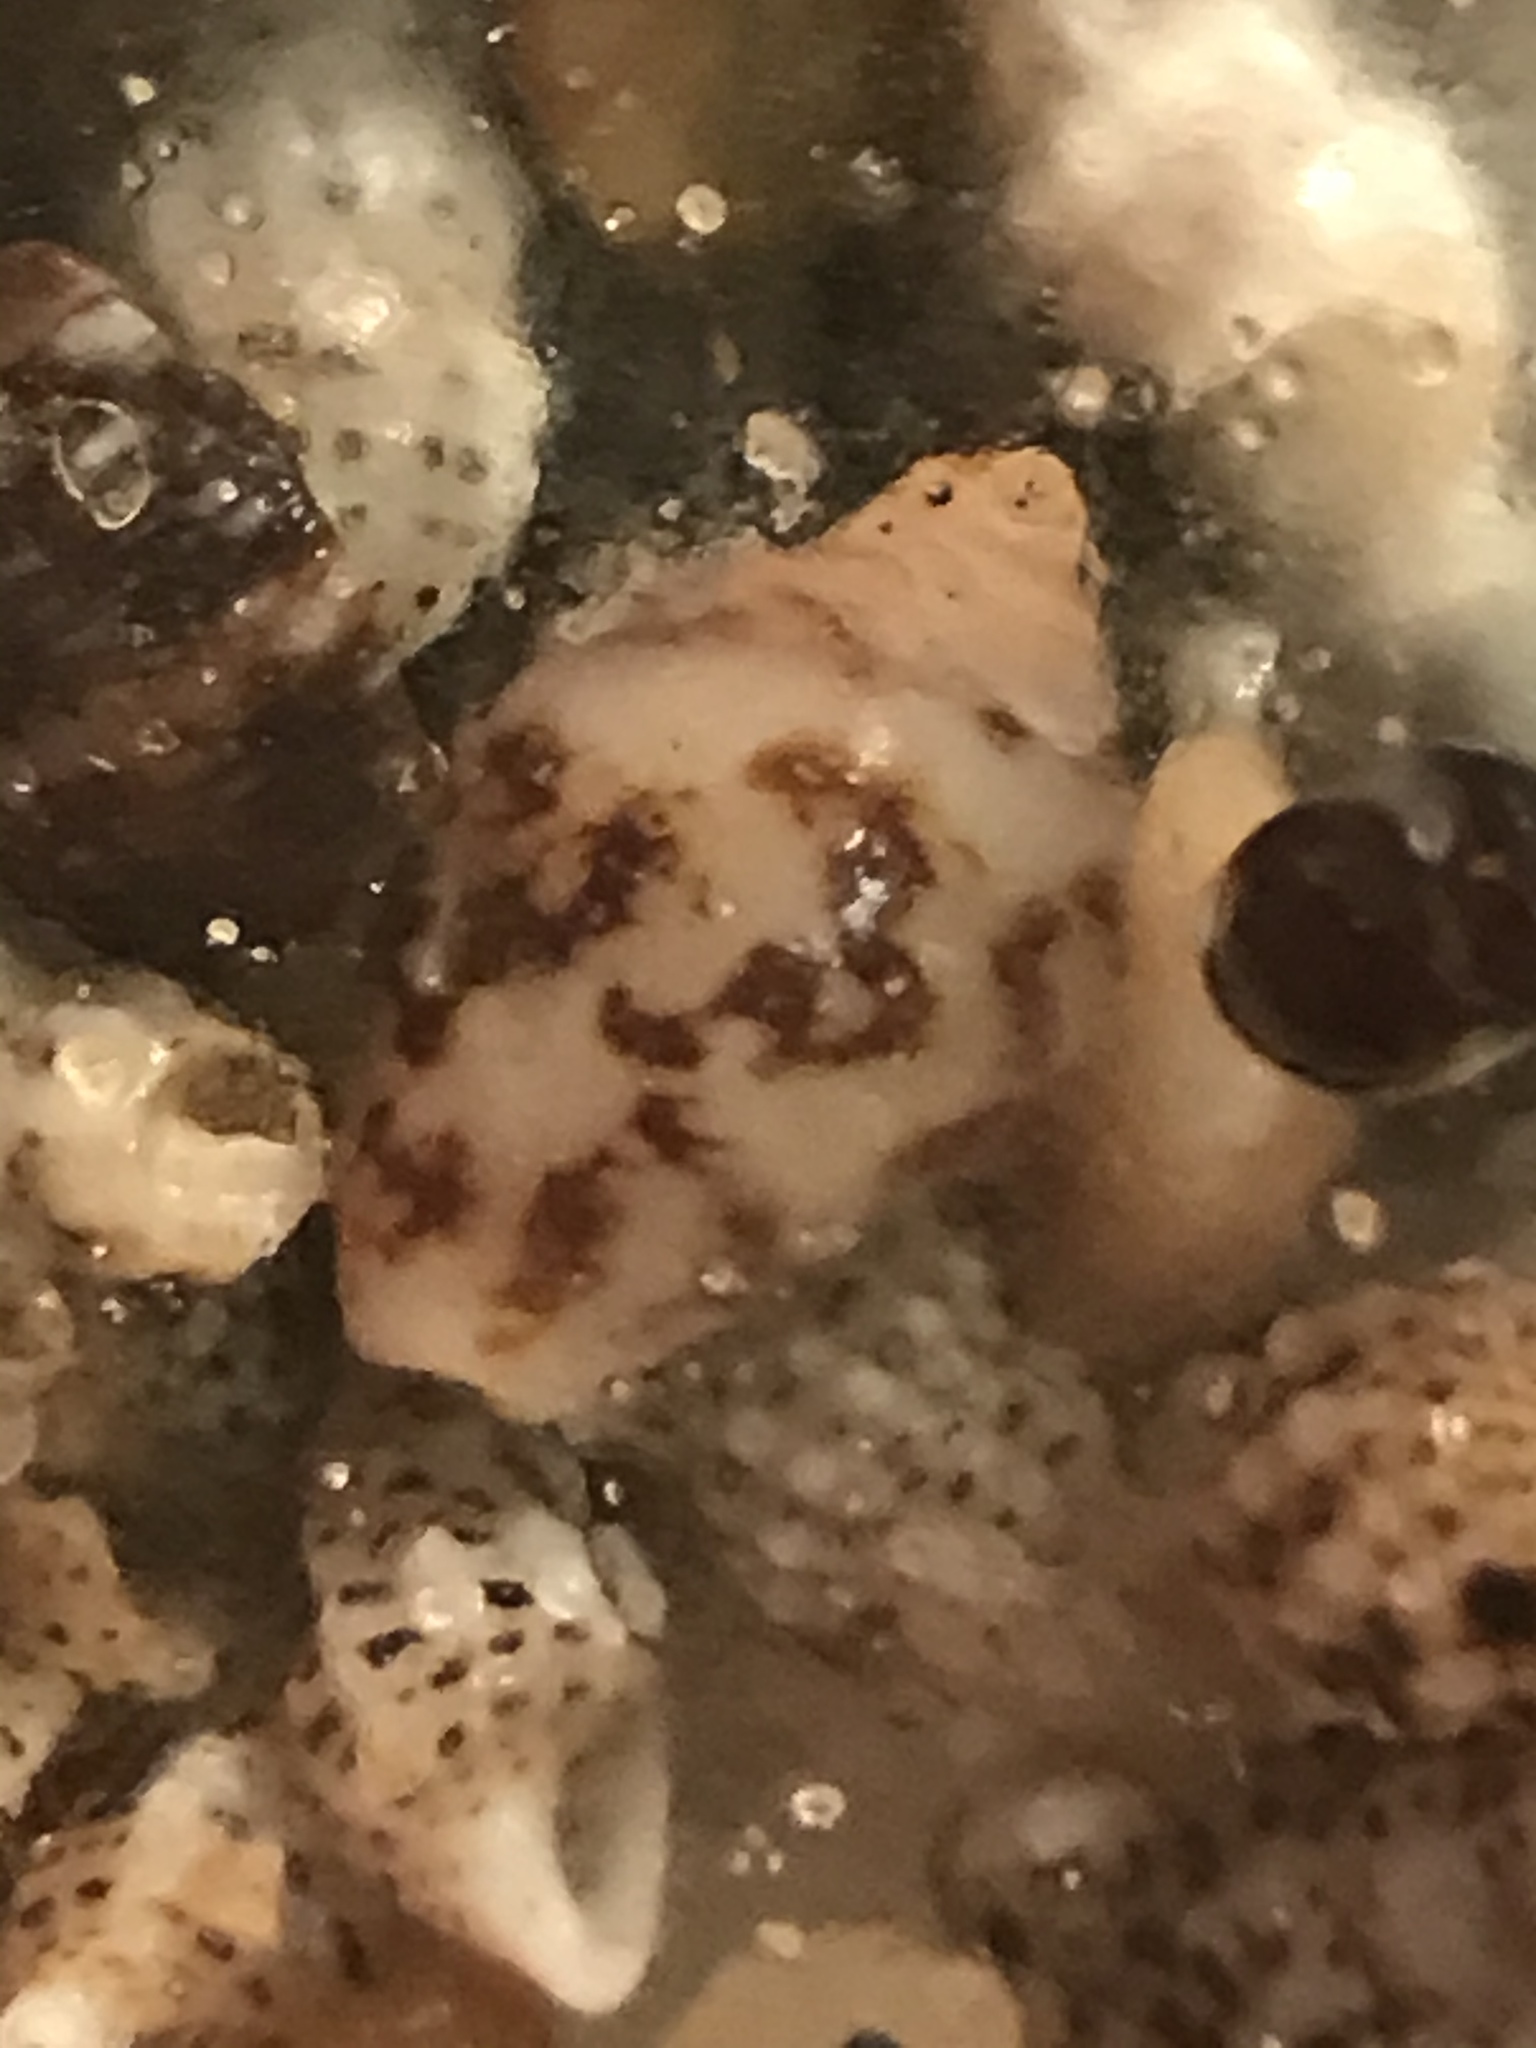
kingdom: Animalia
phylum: Mollusca
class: Gastropoda
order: Neogastropoda
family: Columbellidae
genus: Columbella
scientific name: Columbella rustica
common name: Rustic dove shell
